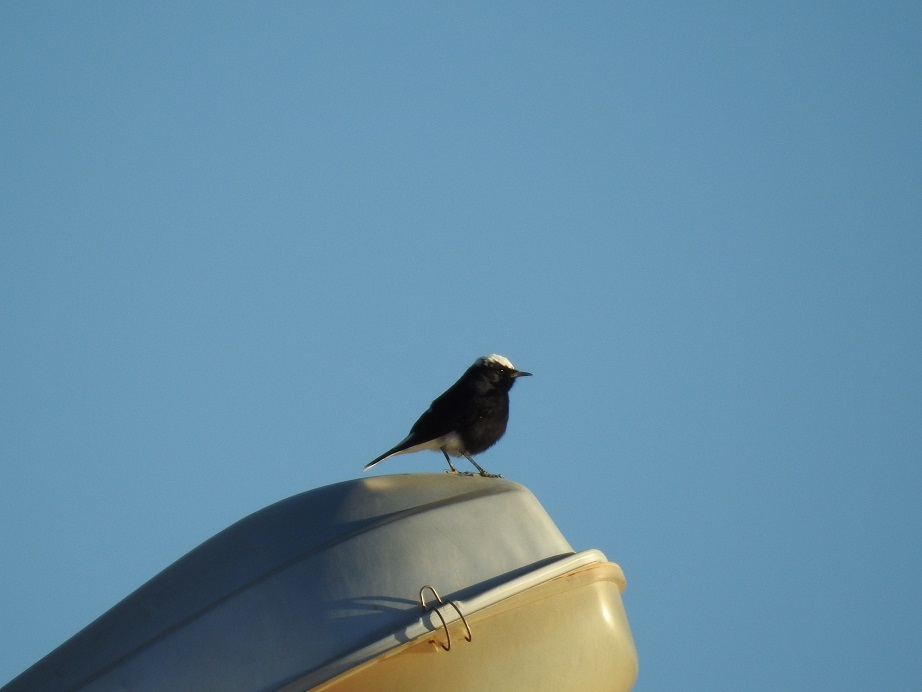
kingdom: Animalia
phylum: Chordata
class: Aves
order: Passeriformes
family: Muscicapidae
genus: Oenanthe
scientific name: Oenanthe leucopyga
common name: White-crowned wheatear
